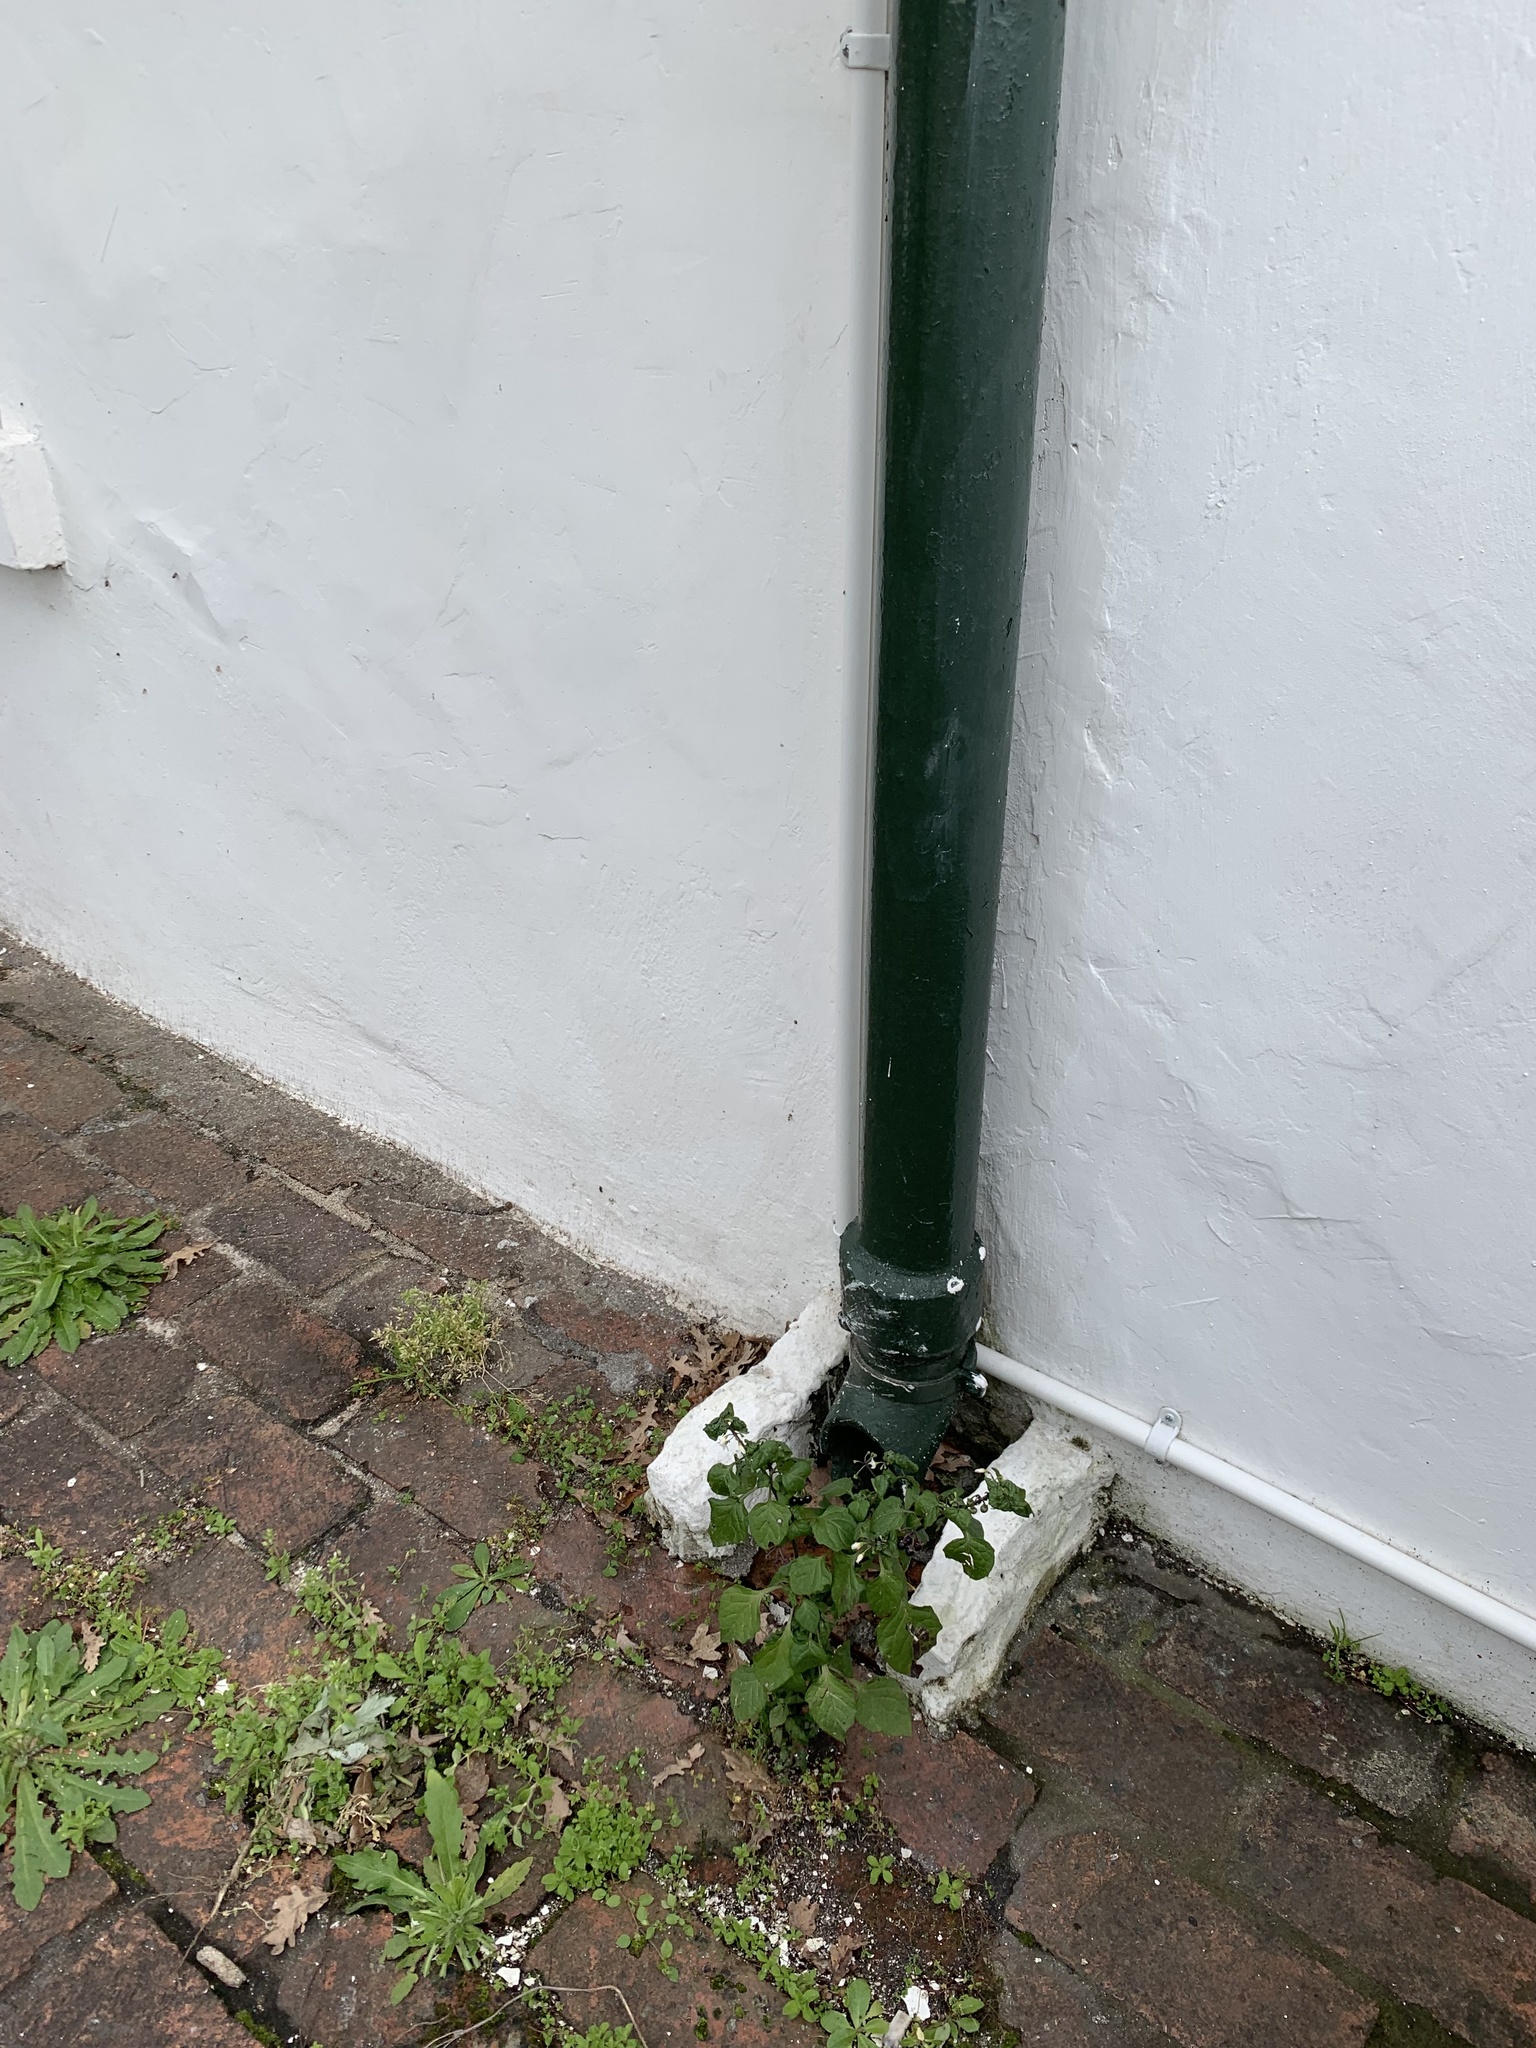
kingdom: Plantae
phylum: Tracheophyta
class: Magnoliopsida
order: Solanales
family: Solanaceae
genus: Solanum
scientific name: Solanum nigrum
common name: Black nightshade
